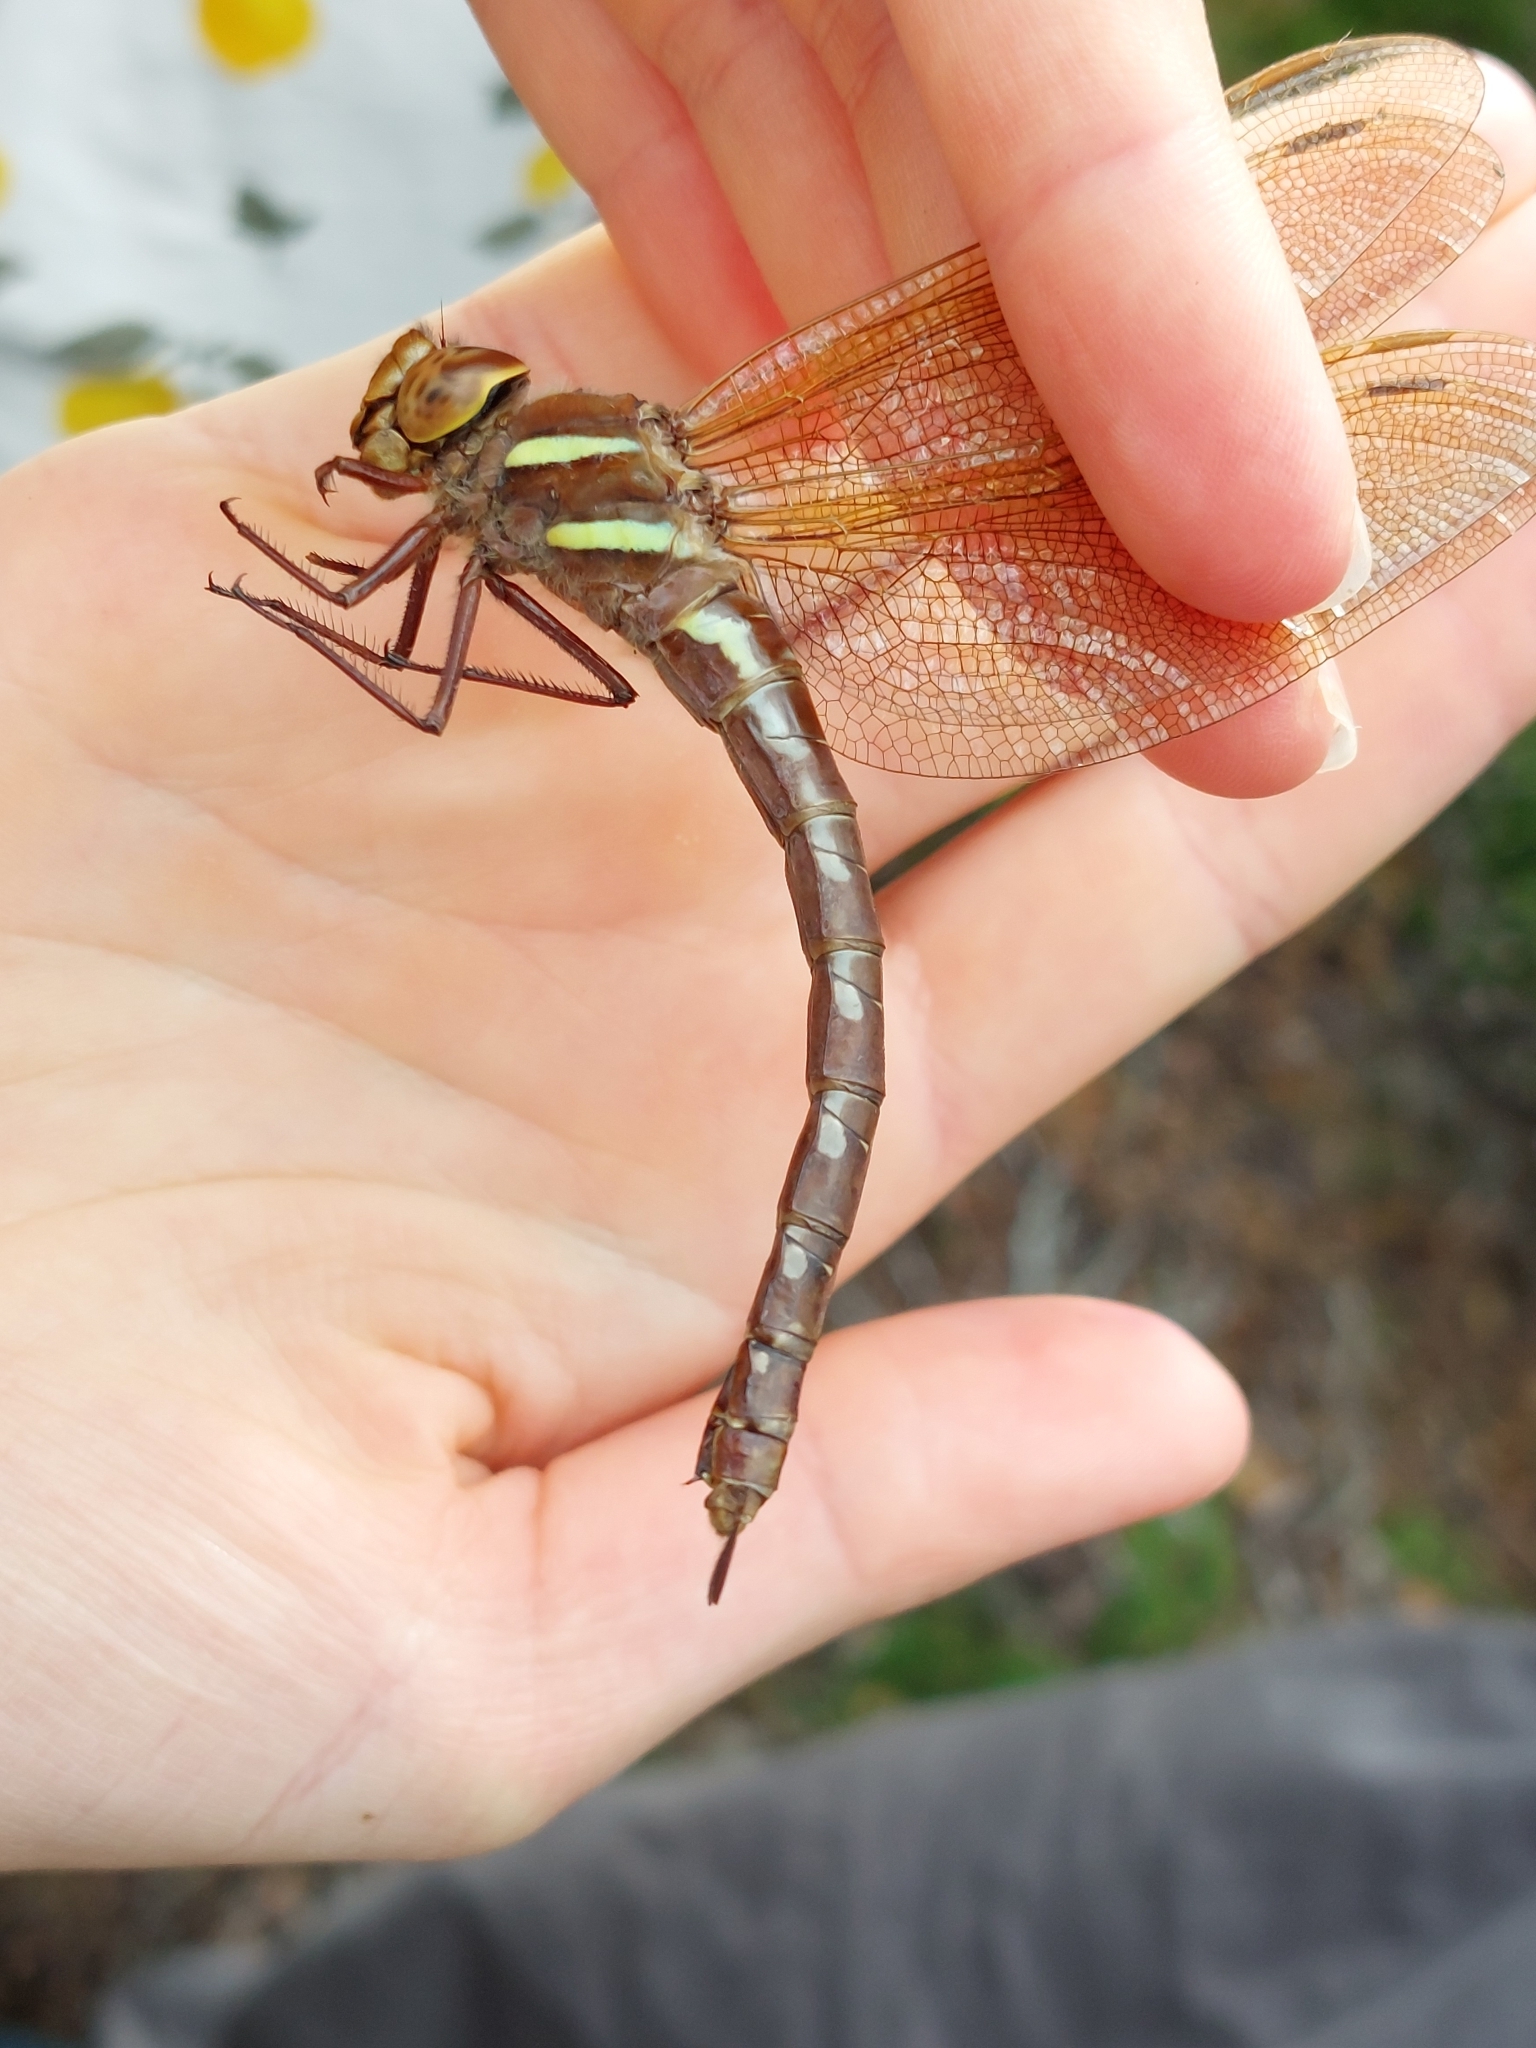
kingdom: Animalia
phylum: Arthropoda
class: Insecta
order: Odonata
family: Aeshnidae
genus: Aeshna
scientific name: Aeshna grandis
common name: Brown hawker
